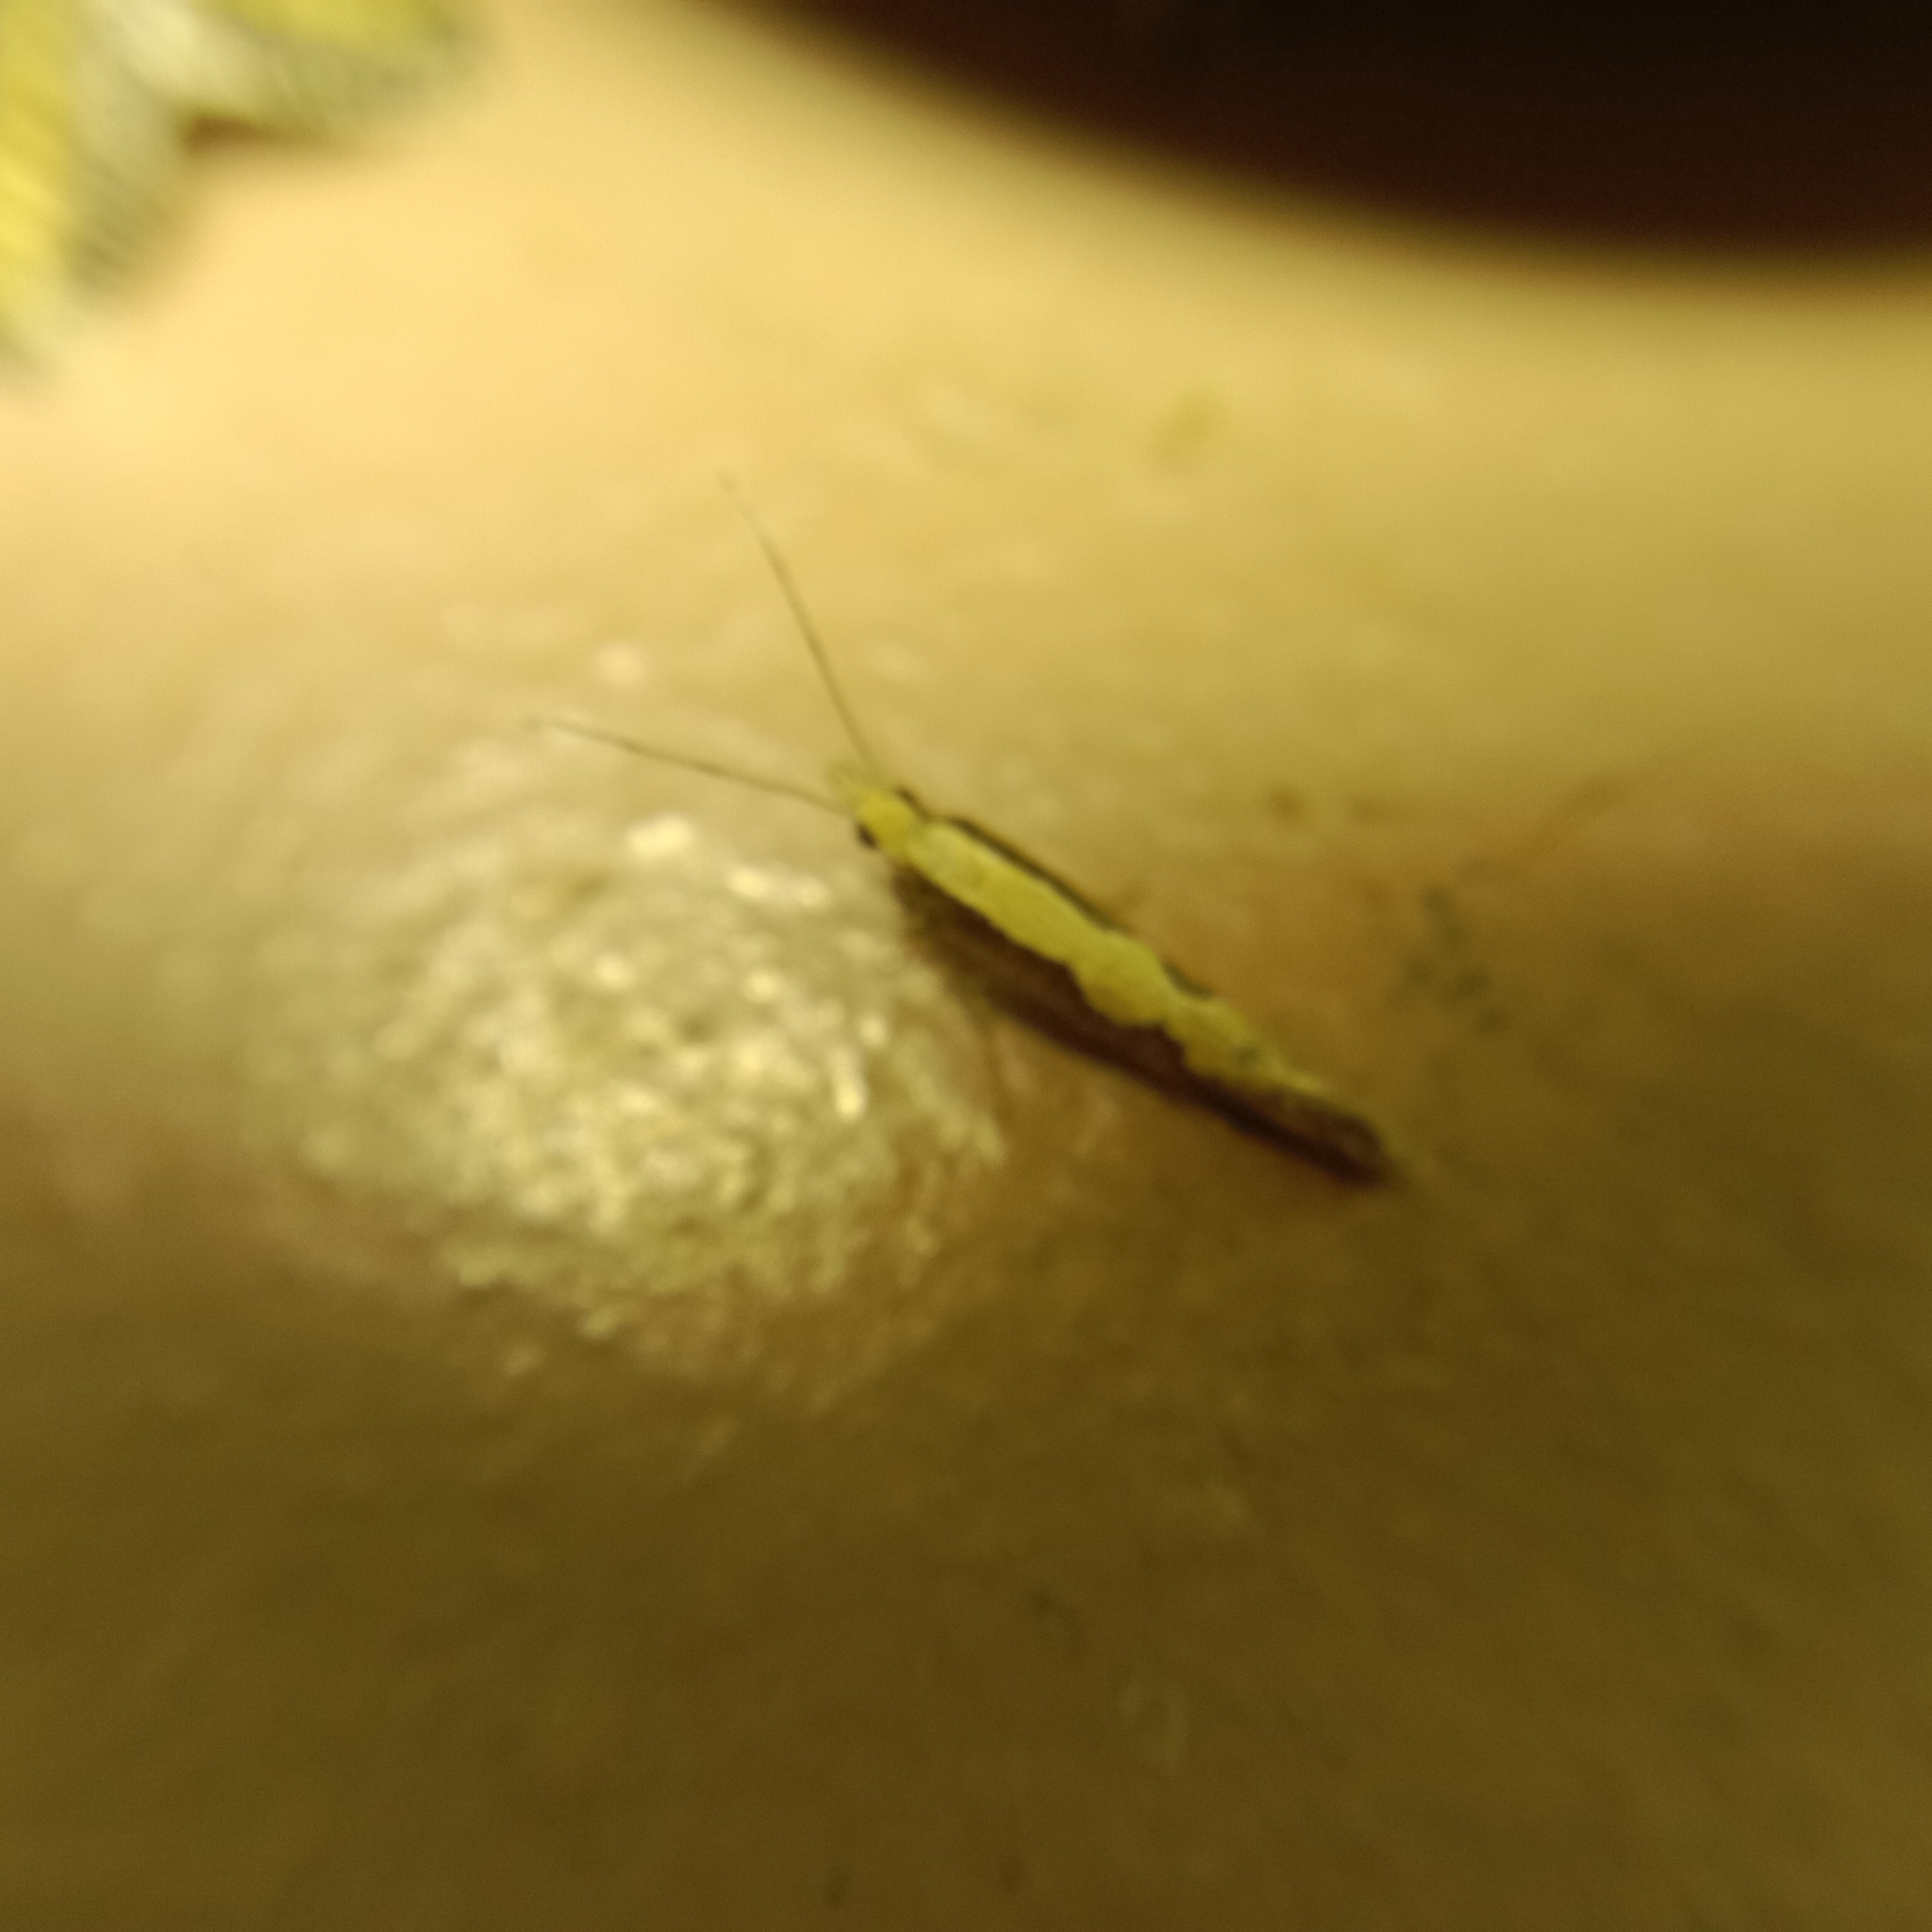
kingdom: Animalia
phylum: Arthropoda
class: Insecta
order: Lepidoptera
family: Plutellidae
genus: Plutella
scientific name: Plutella xylostella
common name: Diamond-back moth
